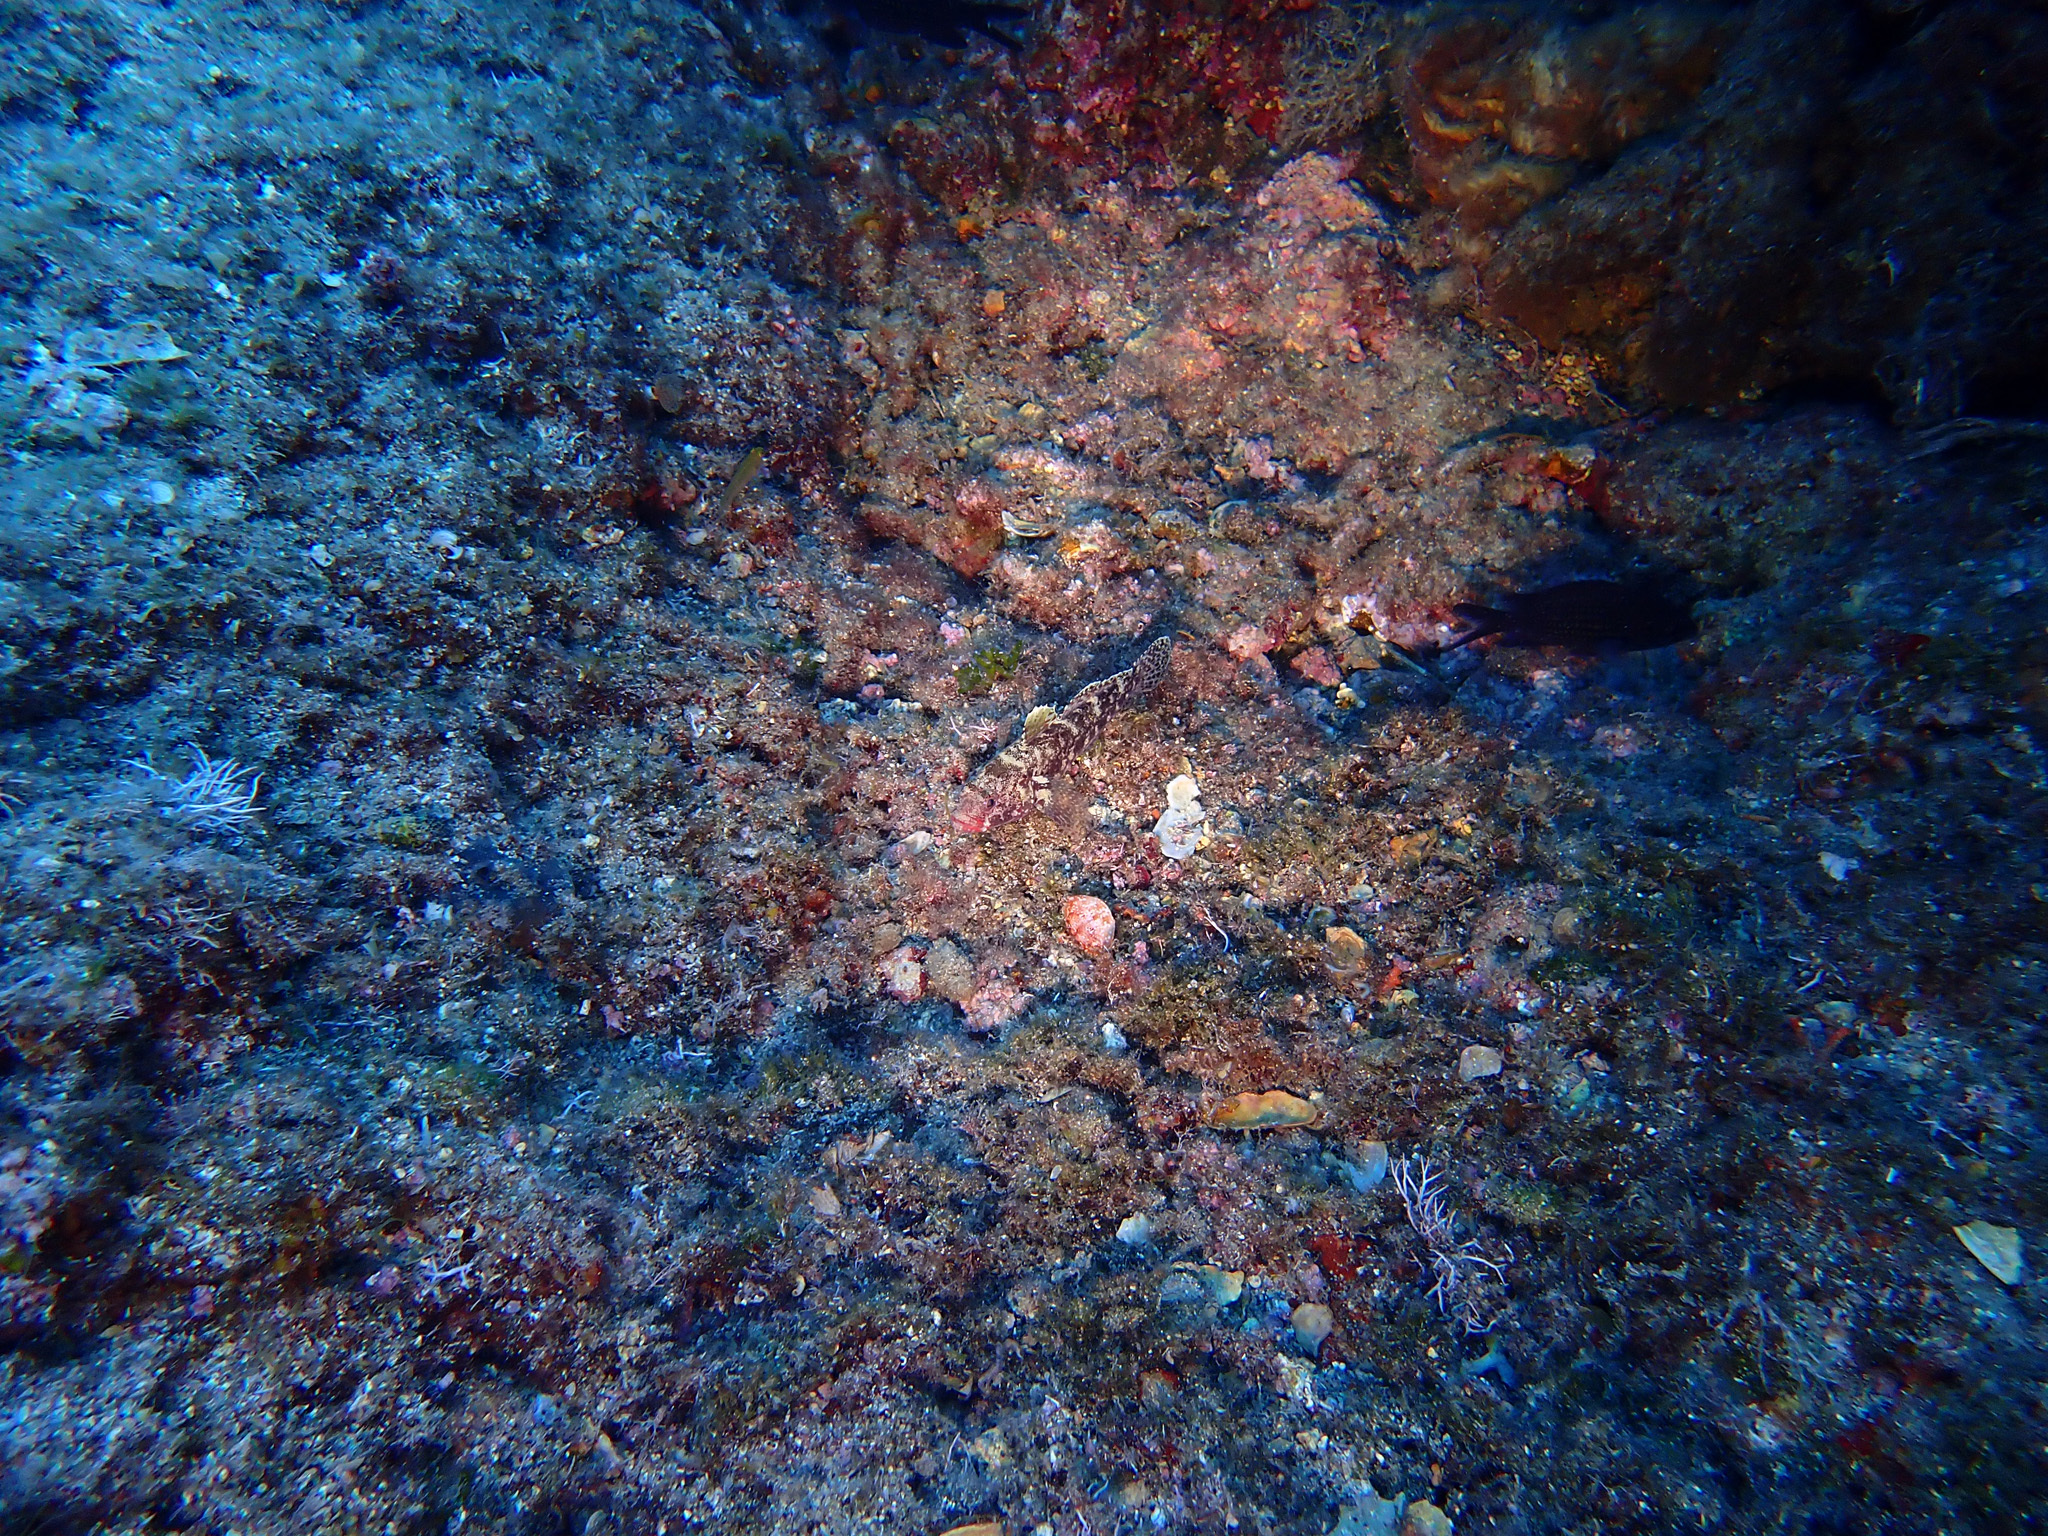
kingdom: Animalia
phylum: Chordata
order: Perciformes
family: Gobiidae
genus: Gobius
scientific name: Gobius cruentatus
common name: Red-mouthed goby
